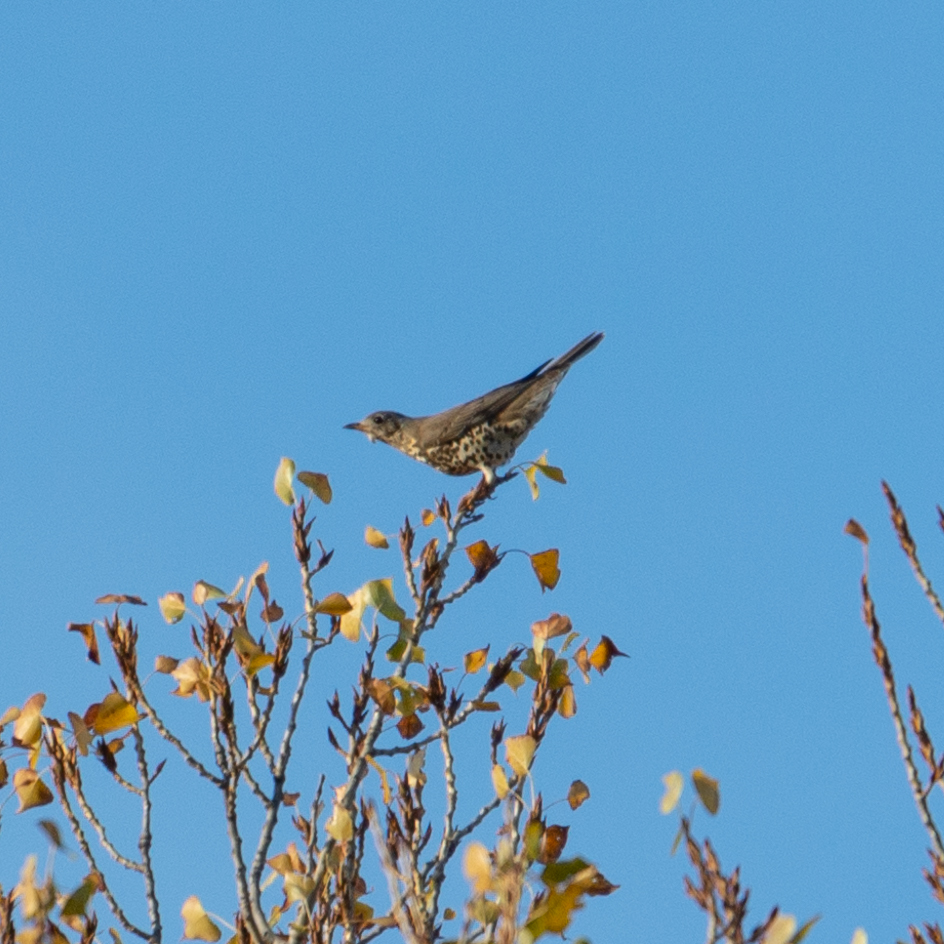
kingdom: Animalia
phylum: Chordata
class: Aves
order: Passeriformes
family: Turdidae
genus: Turdus
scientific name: Turdus viscivorus
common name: Mistle thrush
